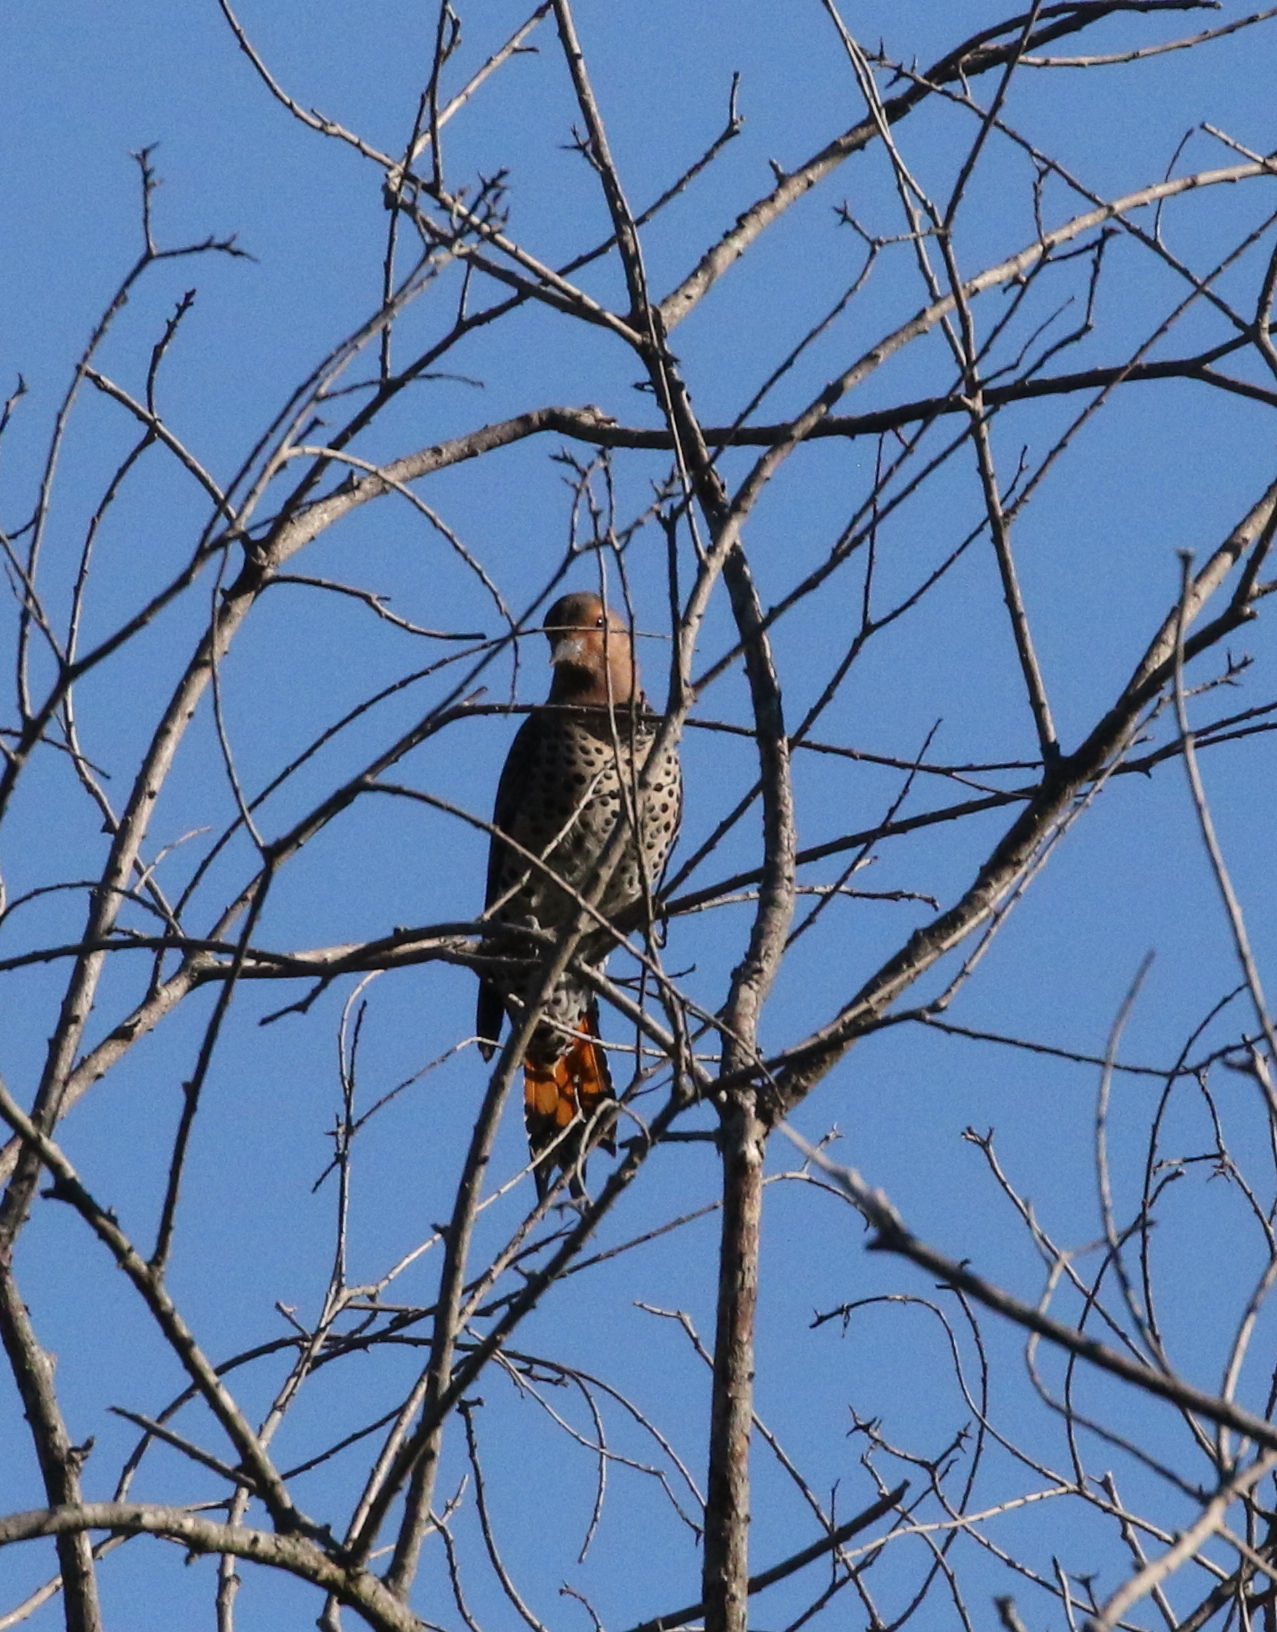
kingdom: Animalia
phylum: Chordata
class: Aves
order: Piciformes
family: Picidae
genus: Colaptes
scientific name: Colaptes auratus
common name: Northern flicker
